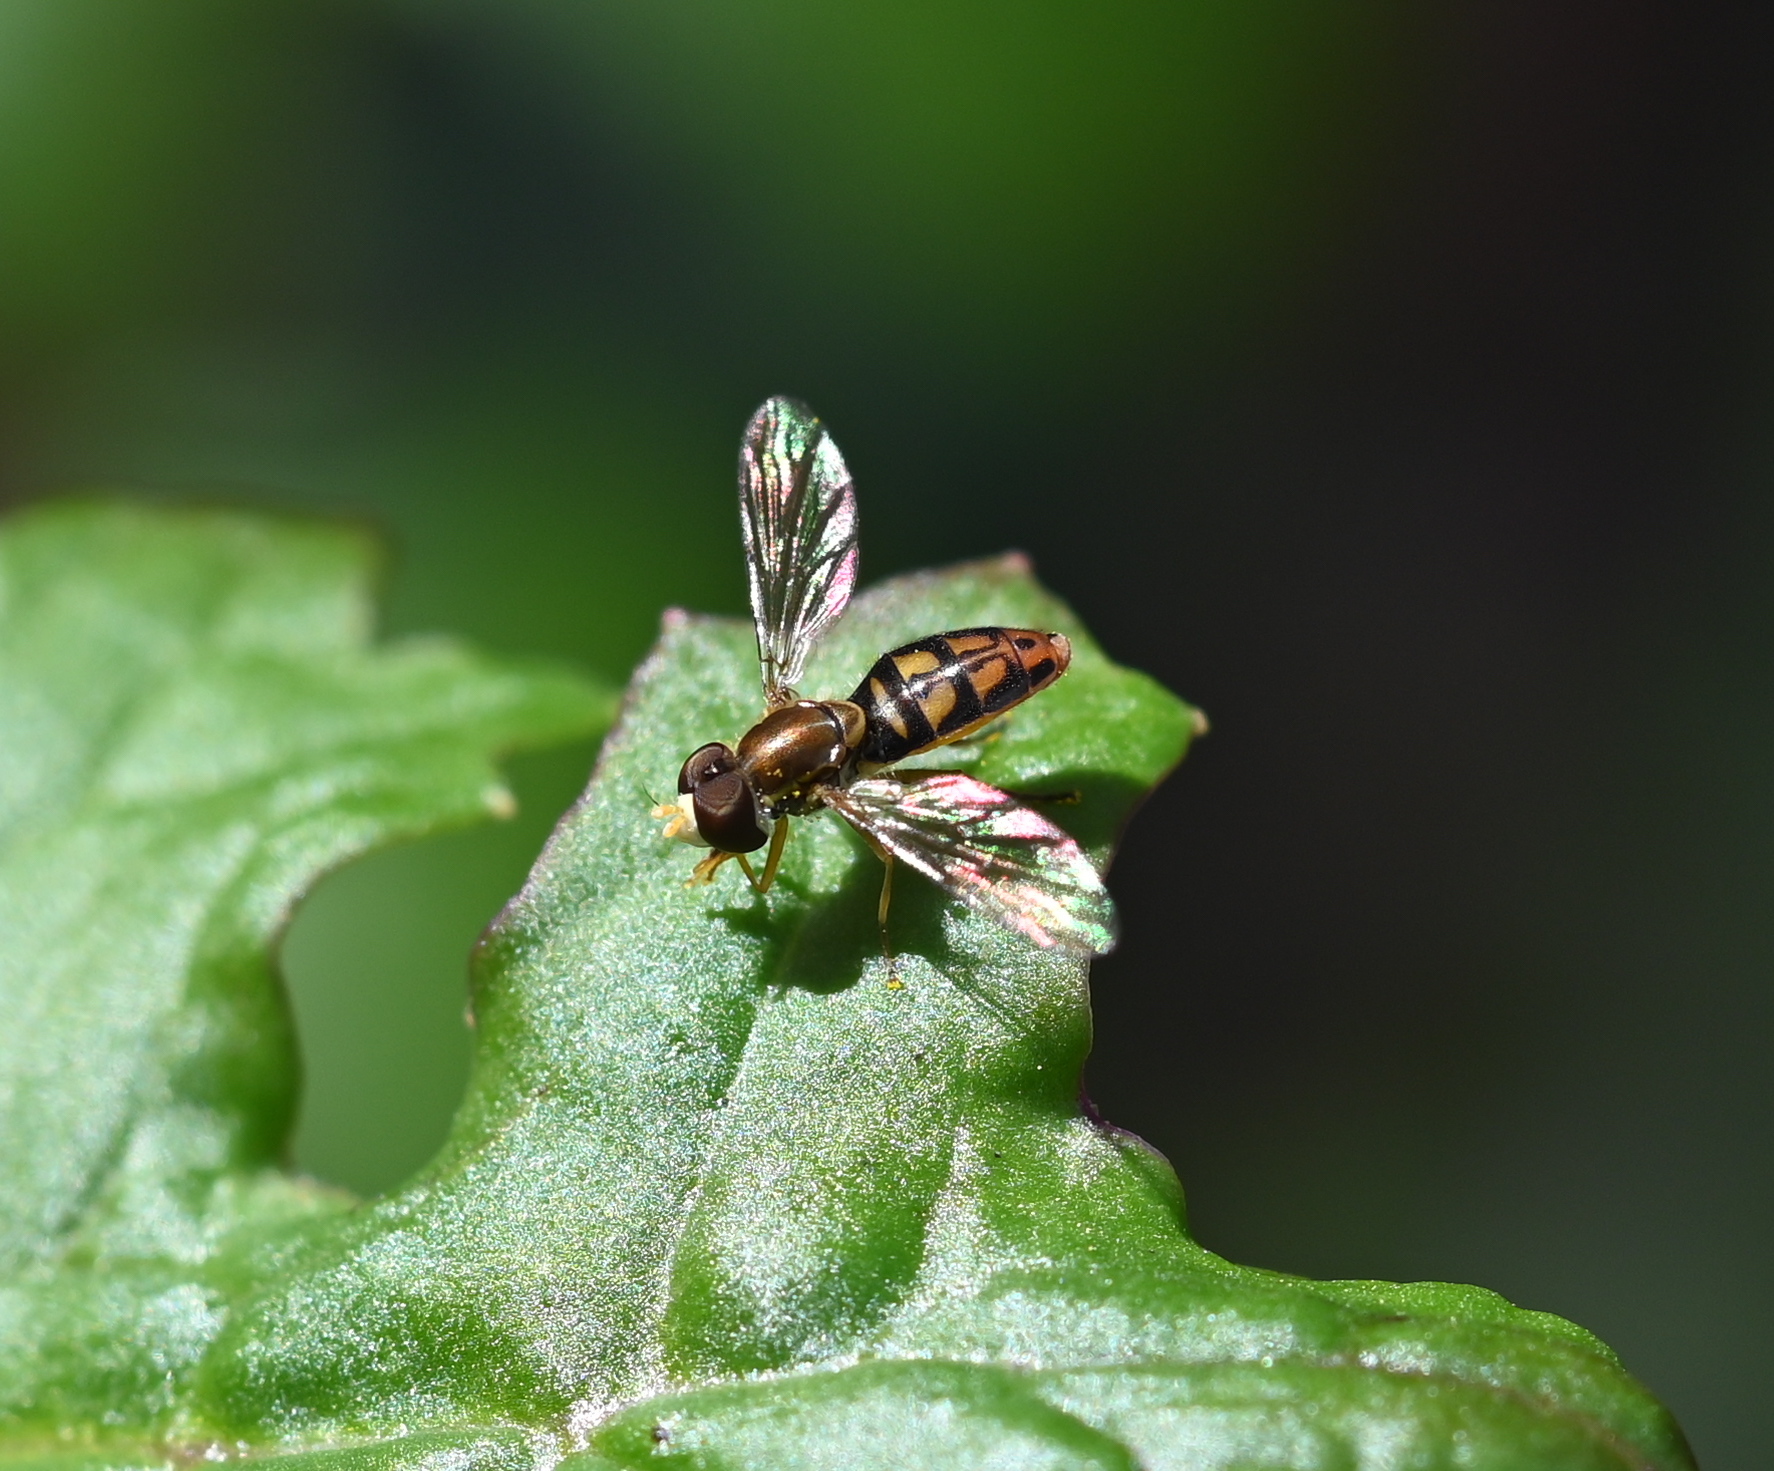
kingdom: Animalia
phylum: Arthropoda
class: Insecta
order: Diptera
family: Syrphidae
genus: Toxomerus
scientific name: Toxomerus marginatus
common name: Syrphid fly
